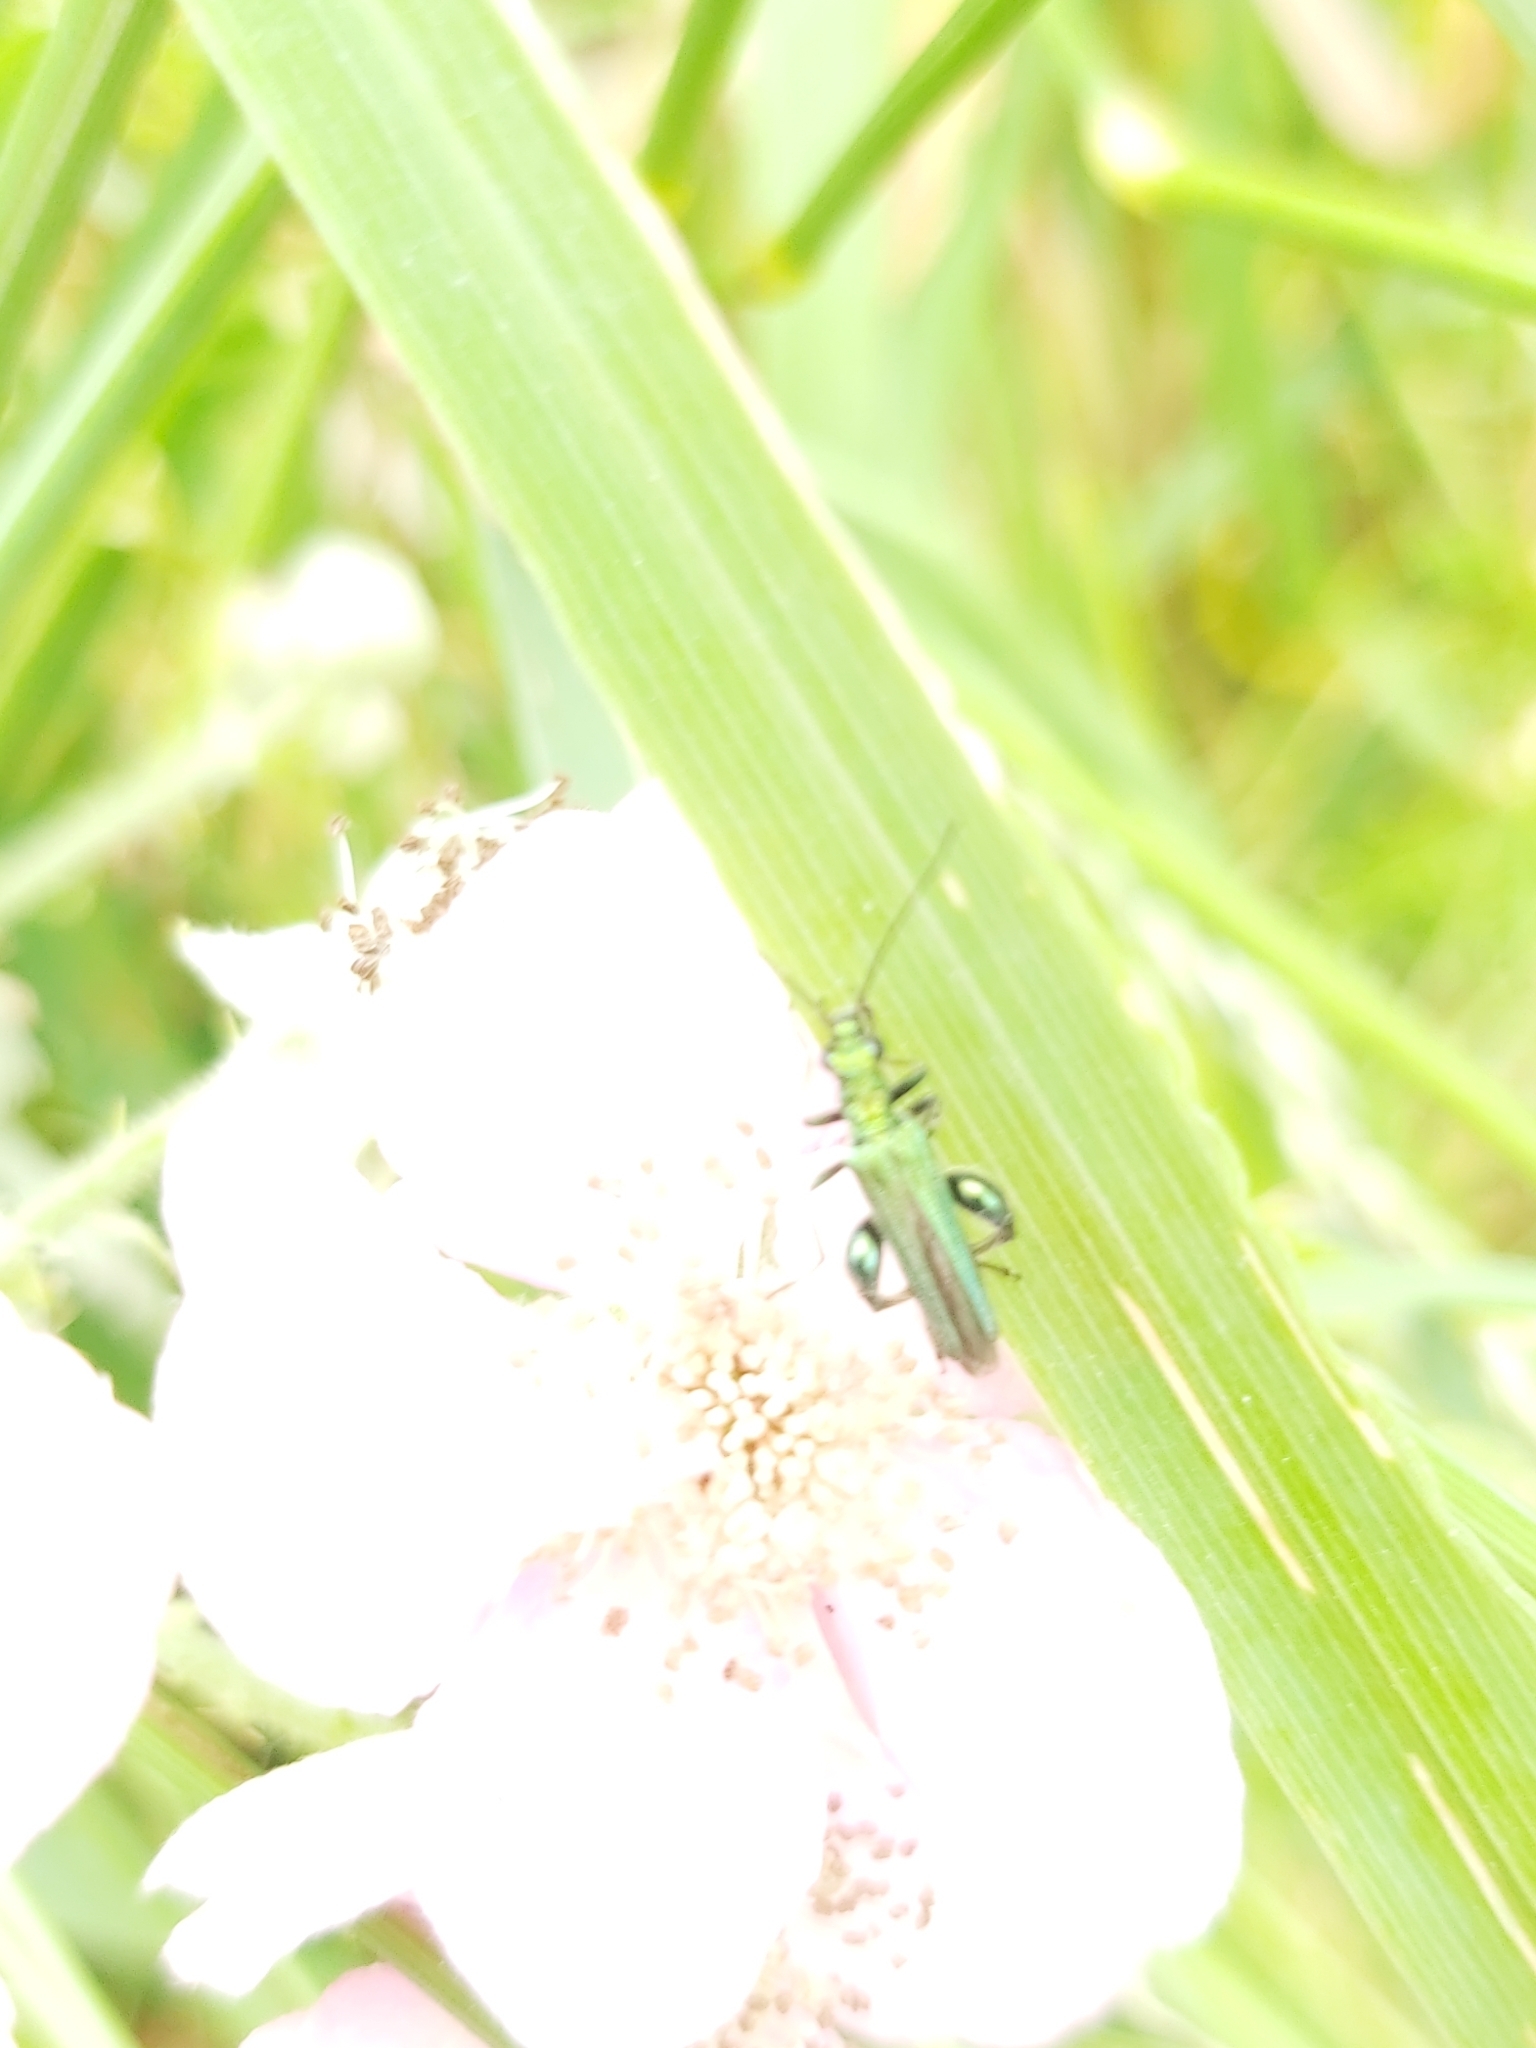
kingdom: Animalia
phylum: Arthropoda
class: Insecta
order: Coleoptera
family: Oedemeridae
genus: Oedemera
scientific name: Oedemera nobilis
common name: Swollen-thighed beetle
